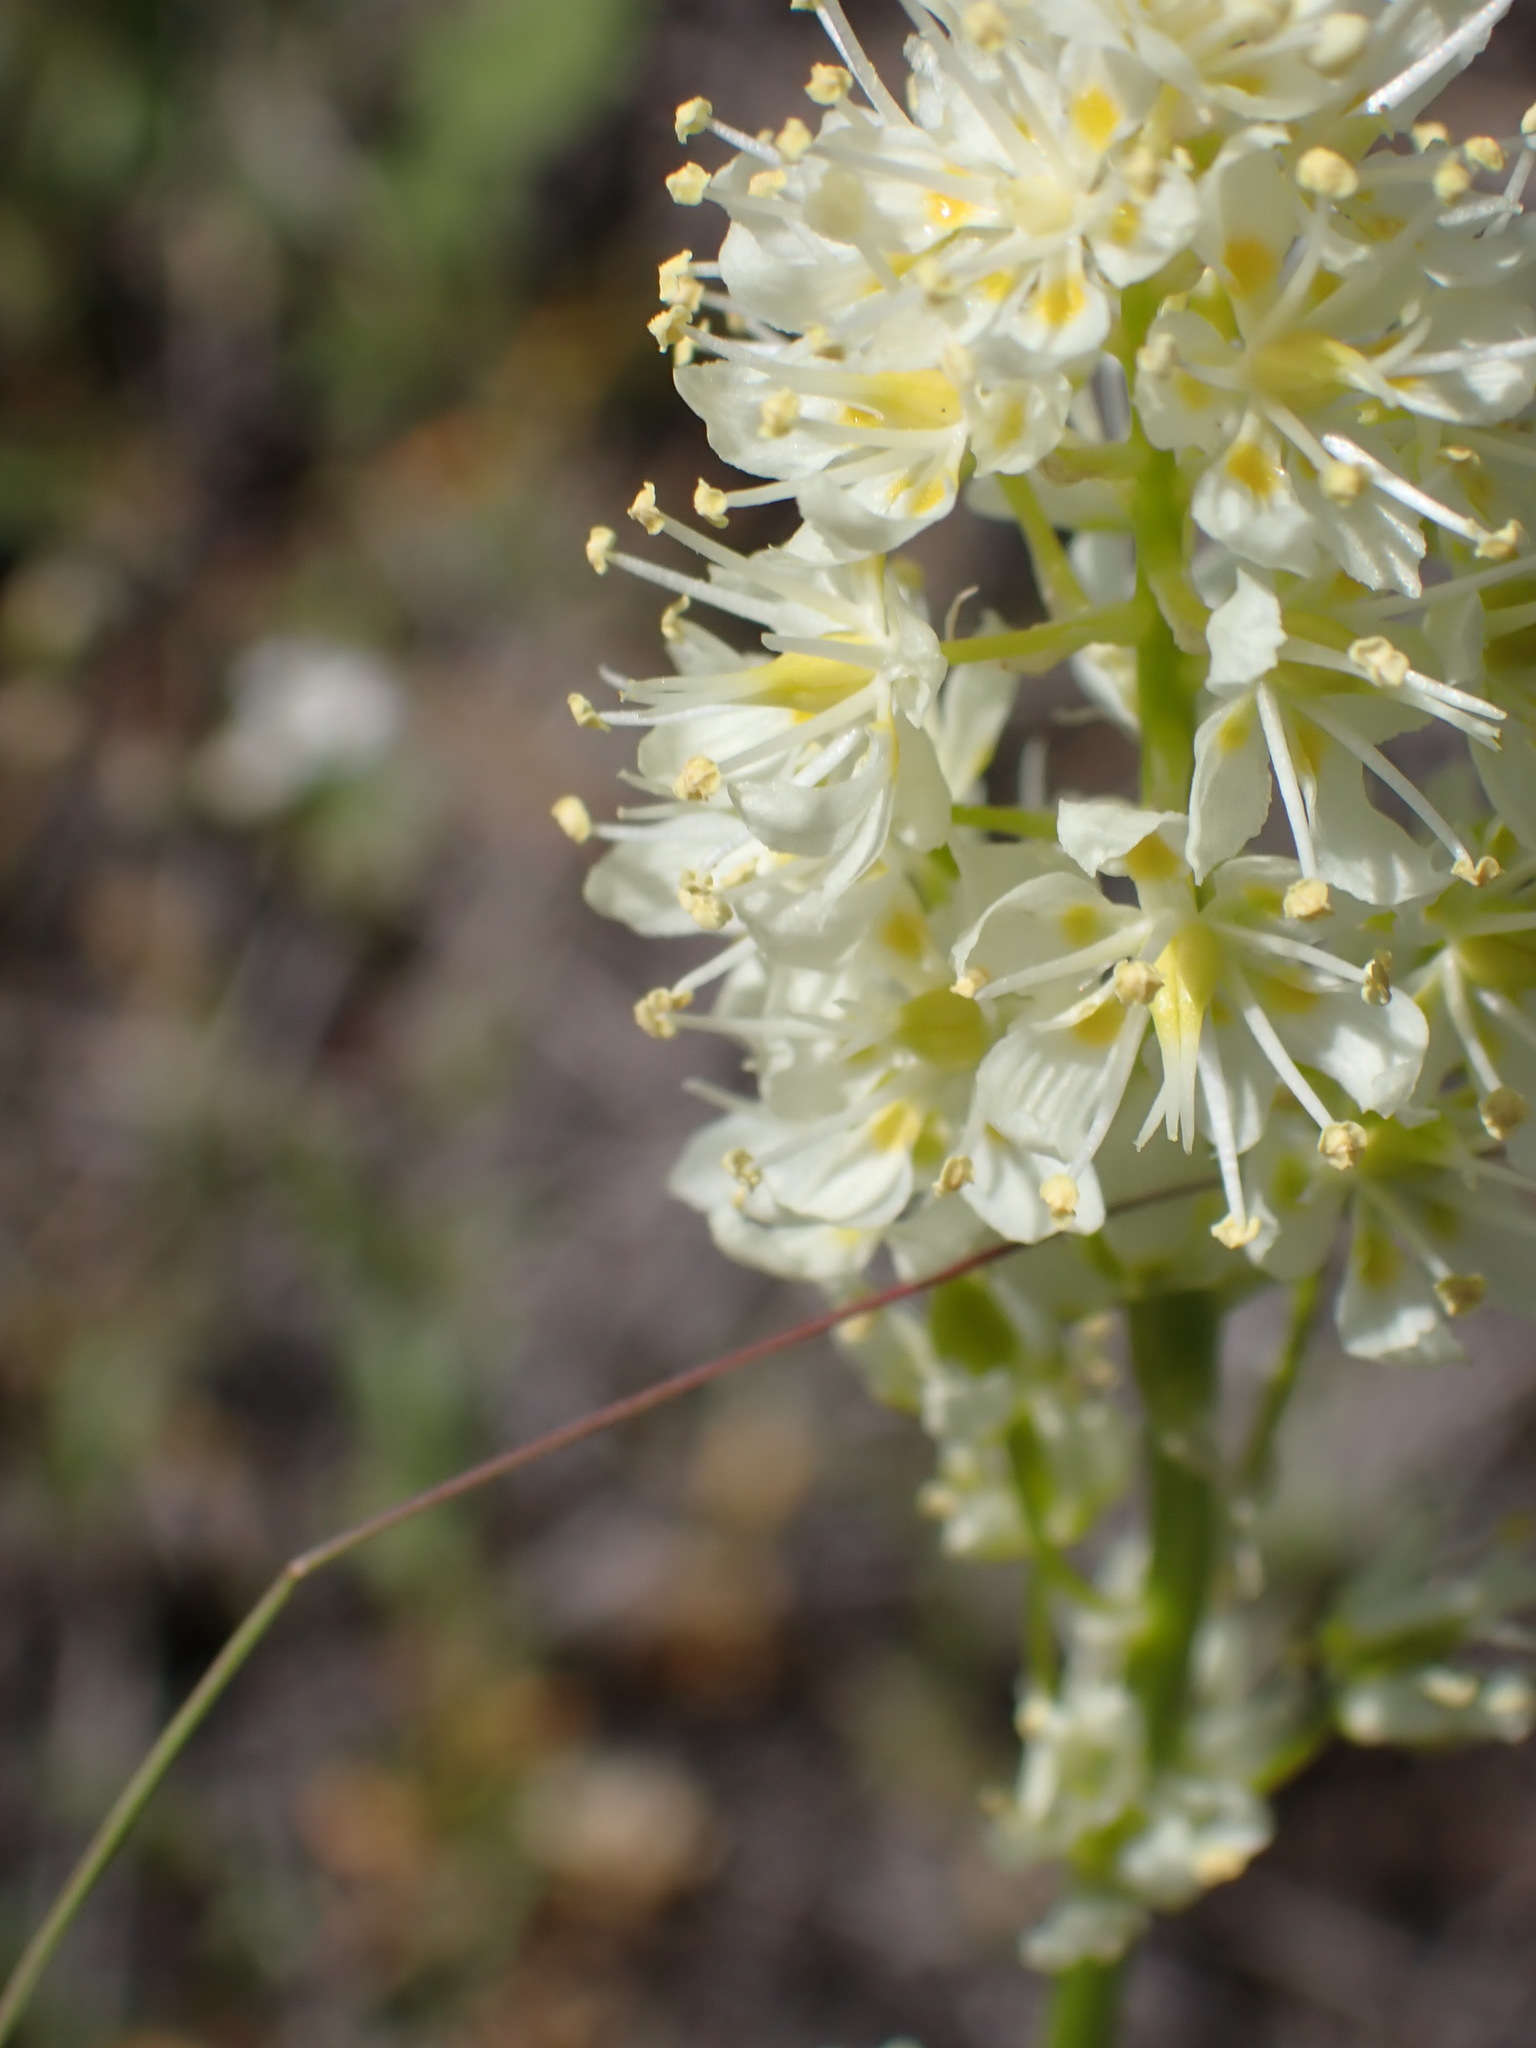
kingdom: Plantae
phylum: Tracheophyta
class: Liliopsida
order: Liliales
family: Melanthiaceae
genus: Toxicoscordion
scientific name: Toxicoscordion venenosum
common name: Meadow death camas
